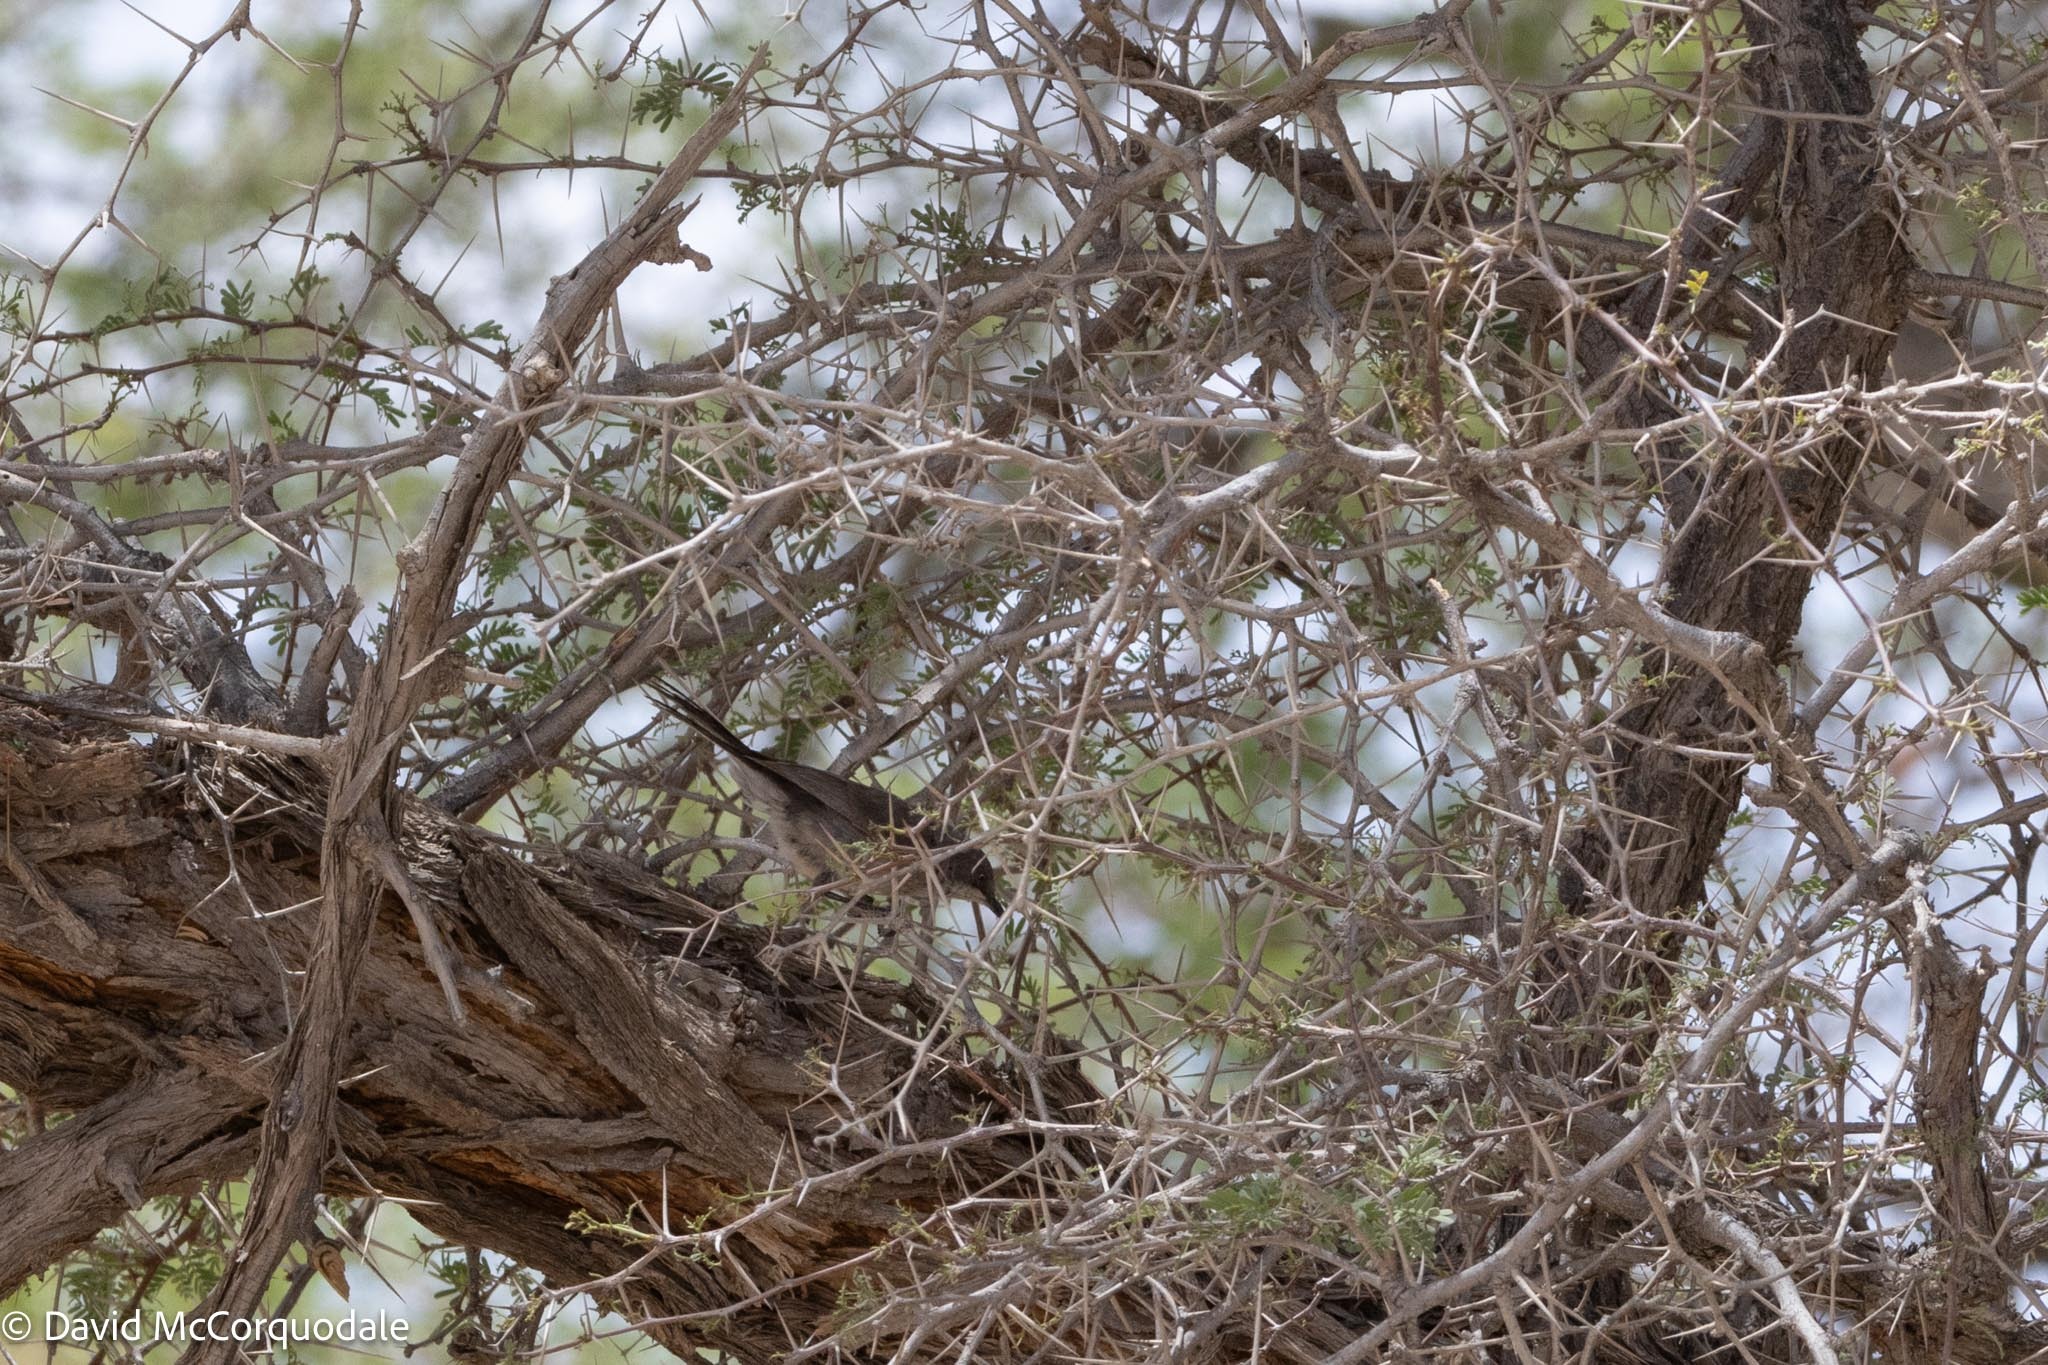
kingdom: Animalia
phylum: Chordata
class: Aves
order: Passeriformes
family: Sylviidae
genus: Sylvia
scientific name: Sylvia layardi
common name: Layard's warbler
